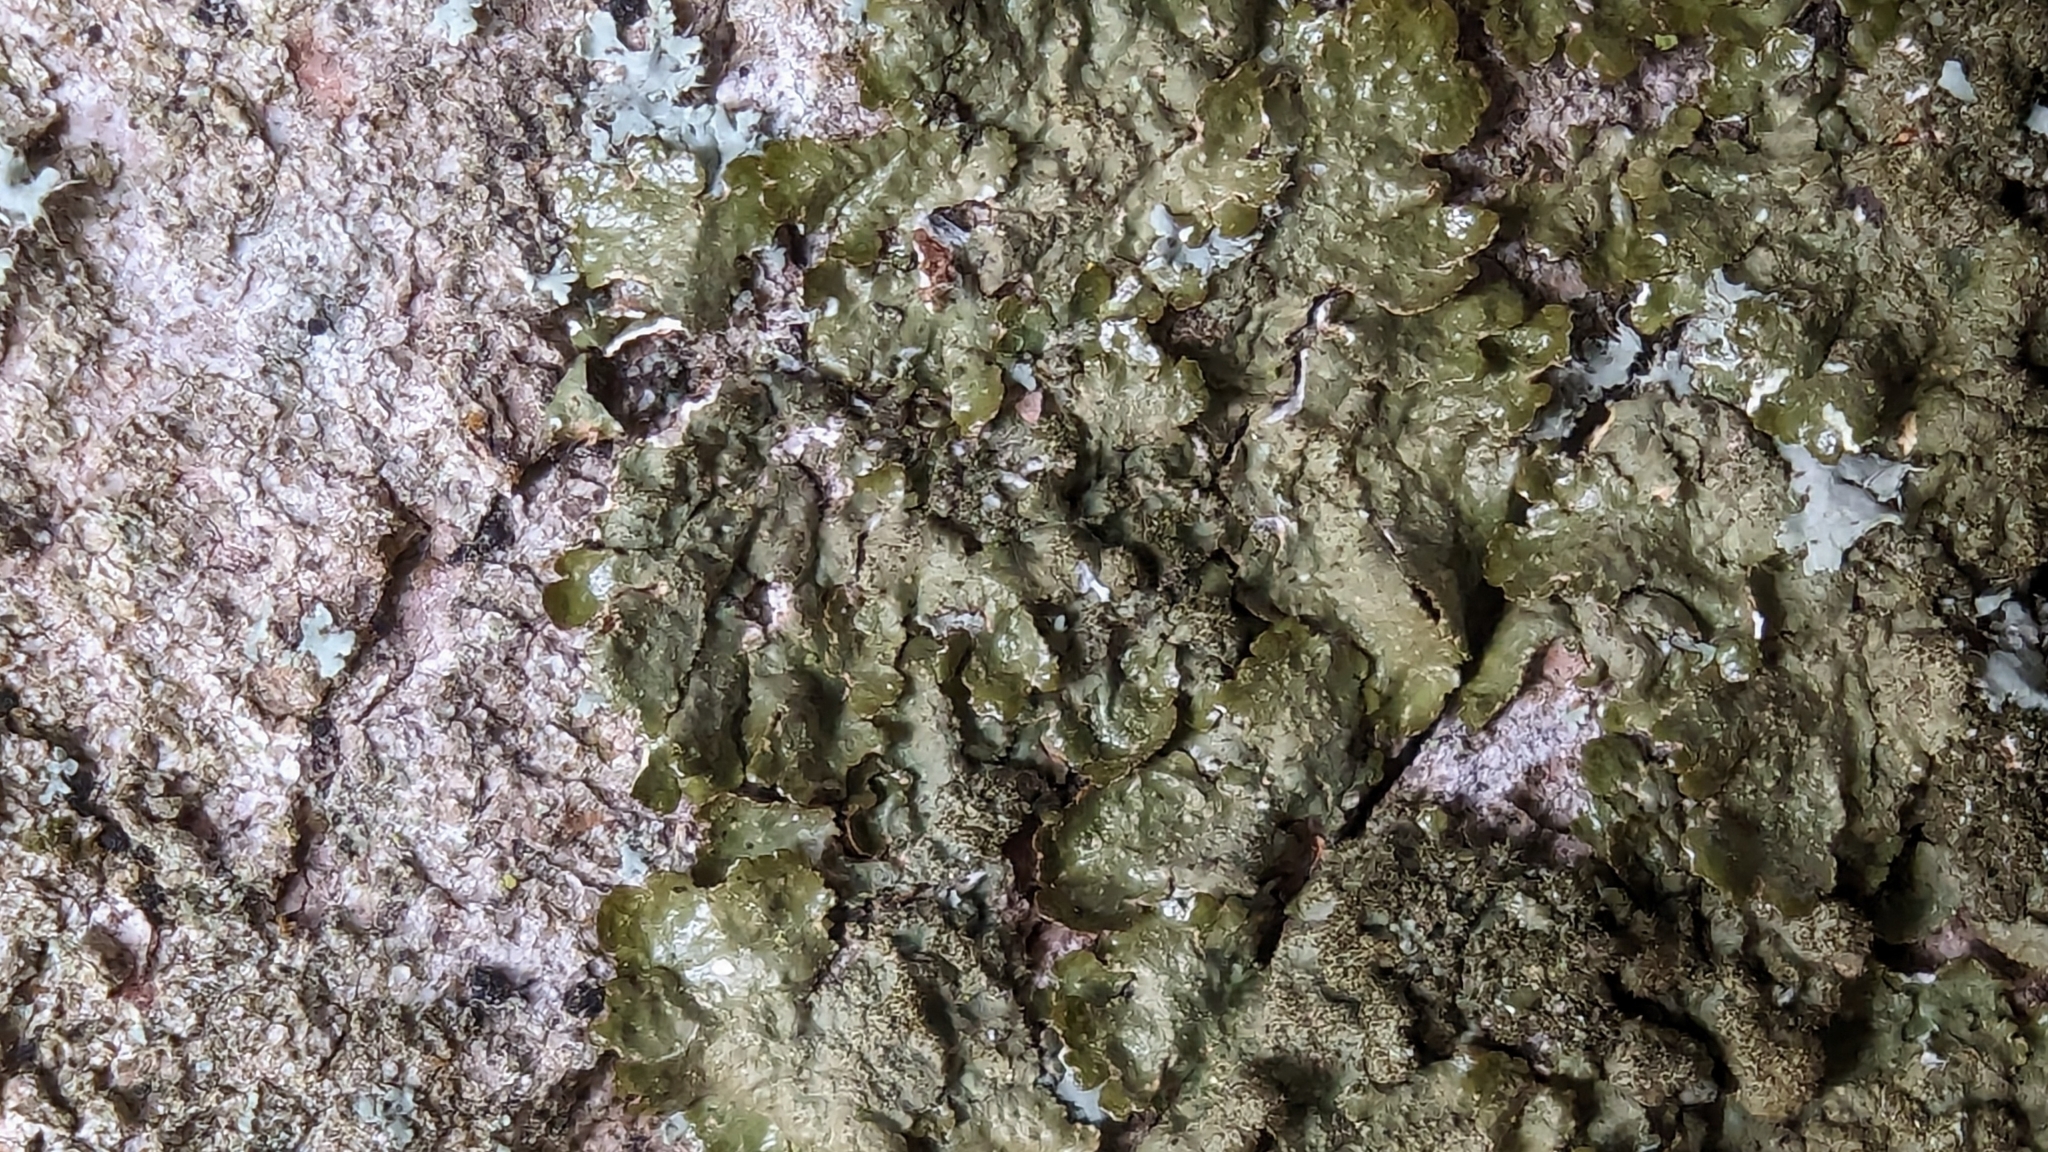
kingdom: Fungi
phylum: Ascomycota
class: Lecanoromycetes
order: Lecanorales
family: Parmeliaceae
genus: Melanelixia
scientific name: Melanelixia glabratula
